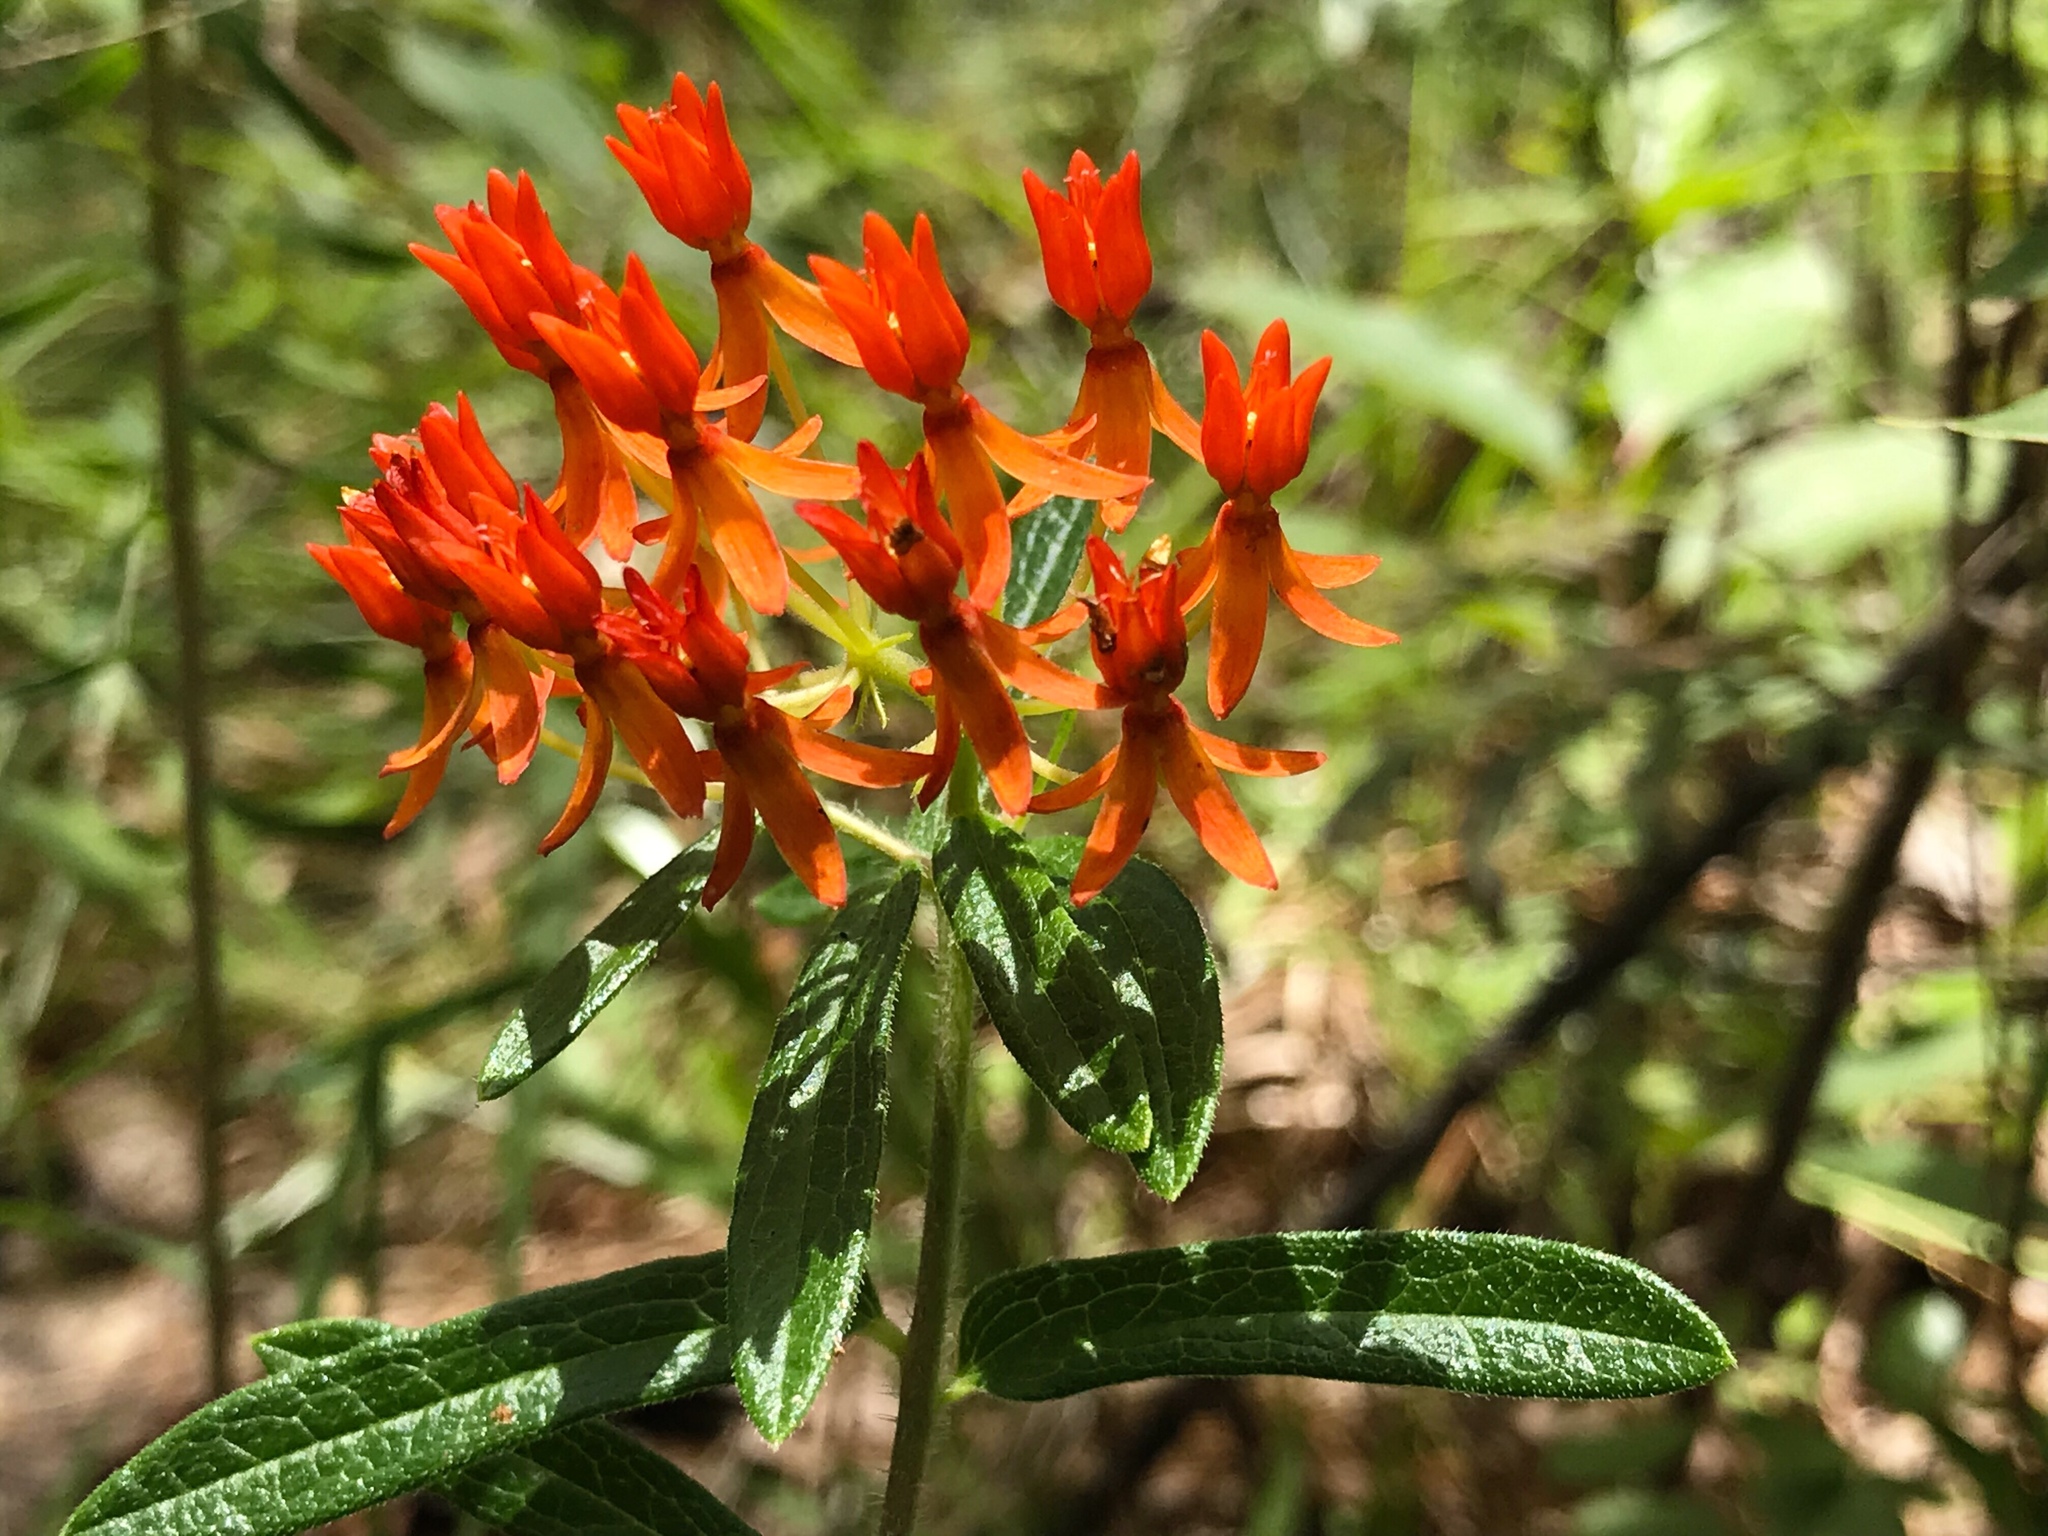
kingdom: Plantae
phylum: Tracheophyta
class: Magnoliopsida
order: Gentianales
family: Apocynaceae
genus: Asclepias
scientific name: Asclepias tuberosa
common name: Butterfly milkweed
